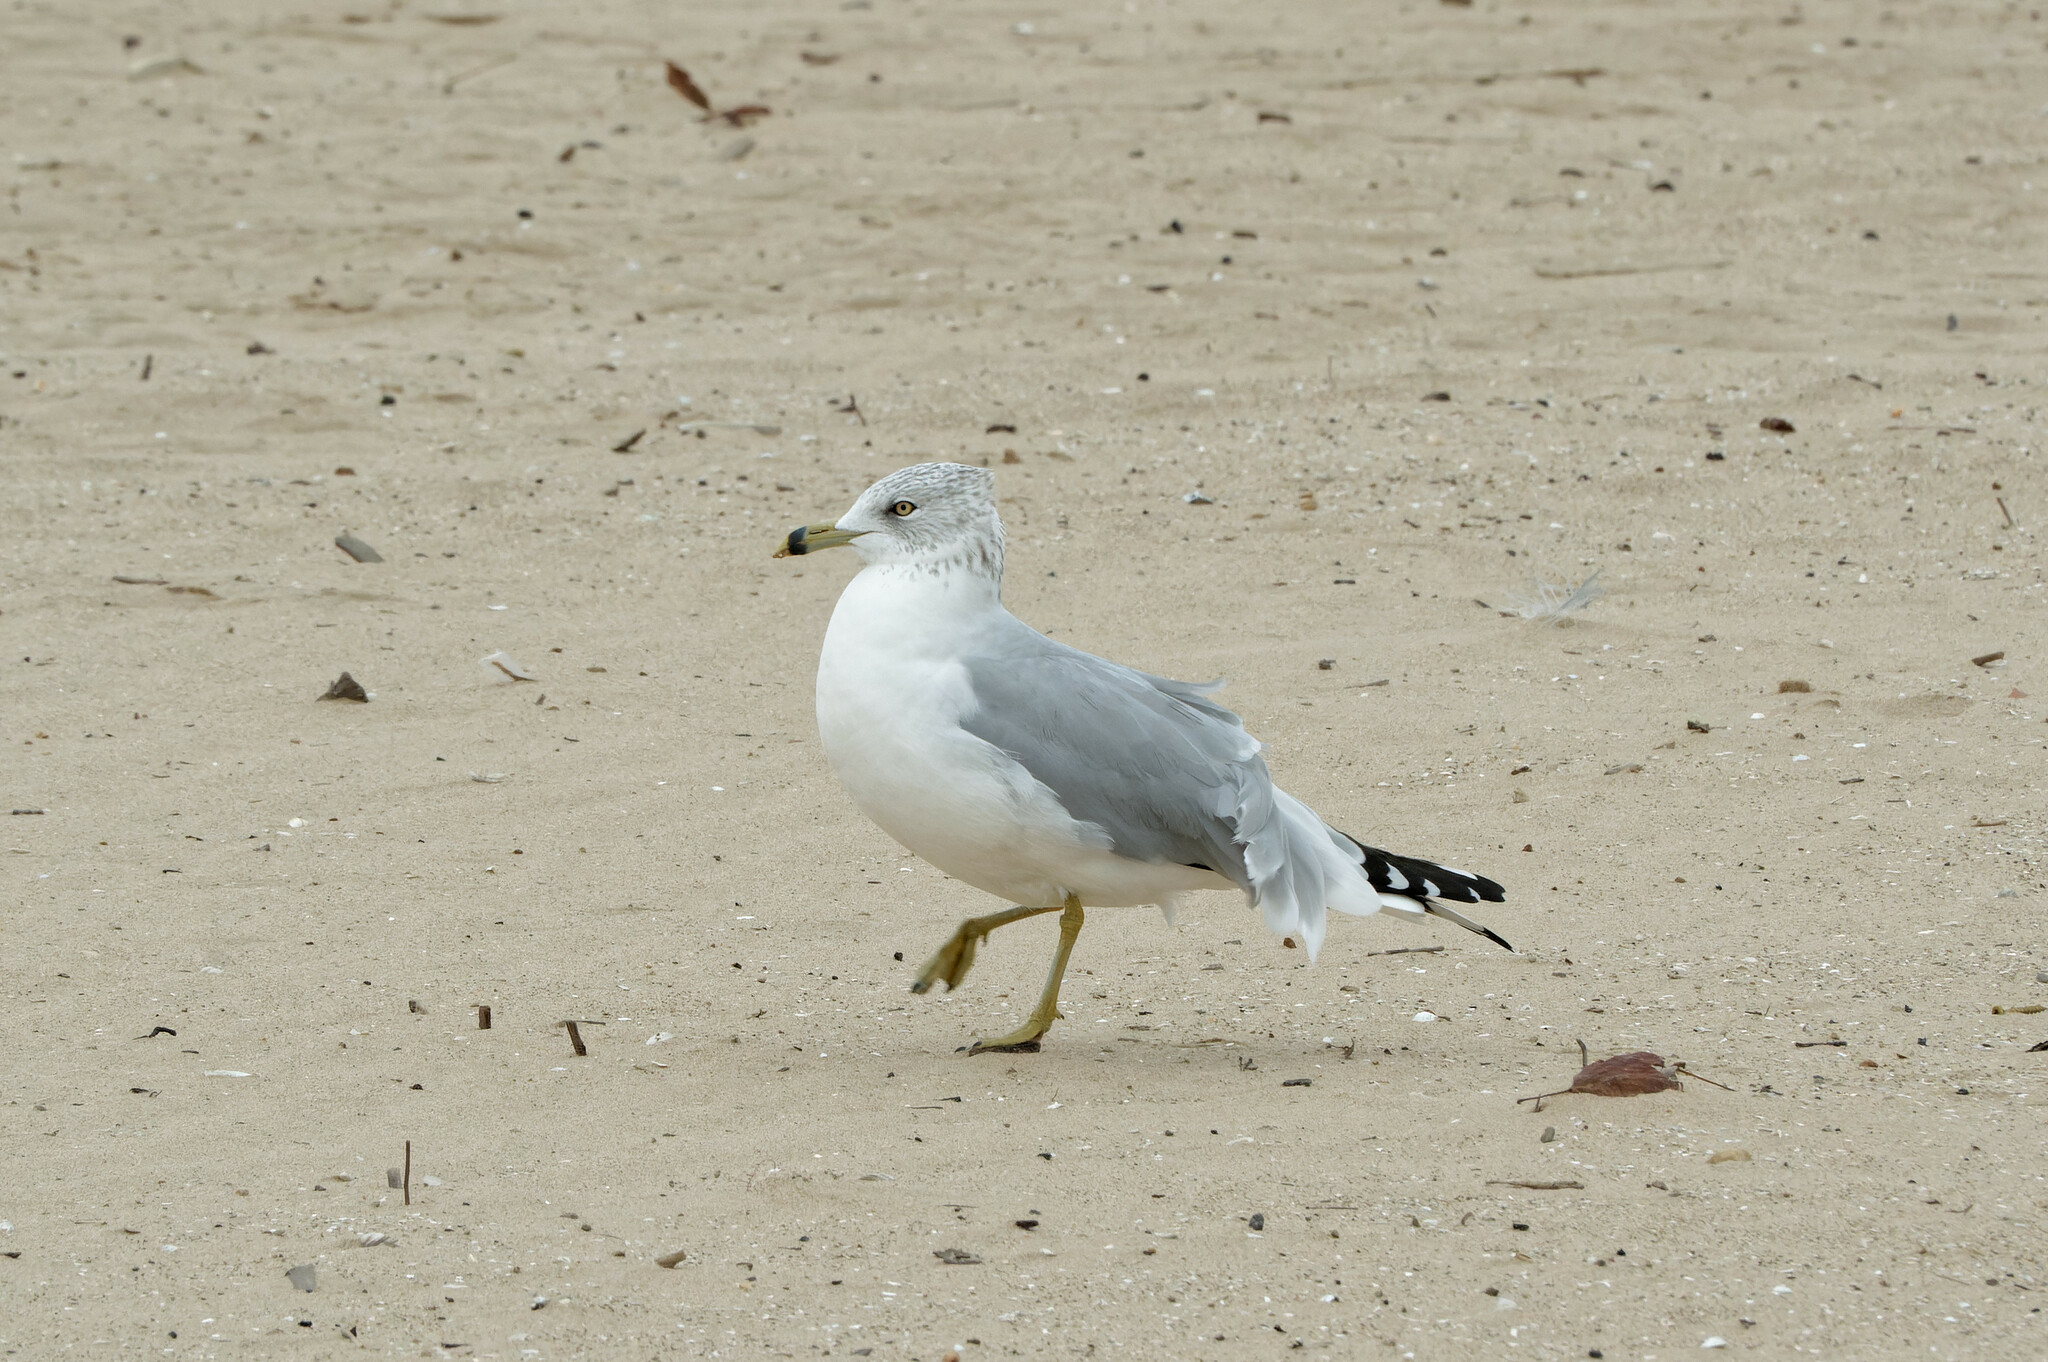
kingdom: Animalia
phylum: Chordata
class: Aves
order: Charadriiformes
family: Laridae
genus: Larus
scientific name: Larus delawarensis
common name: Ring-billed gull
